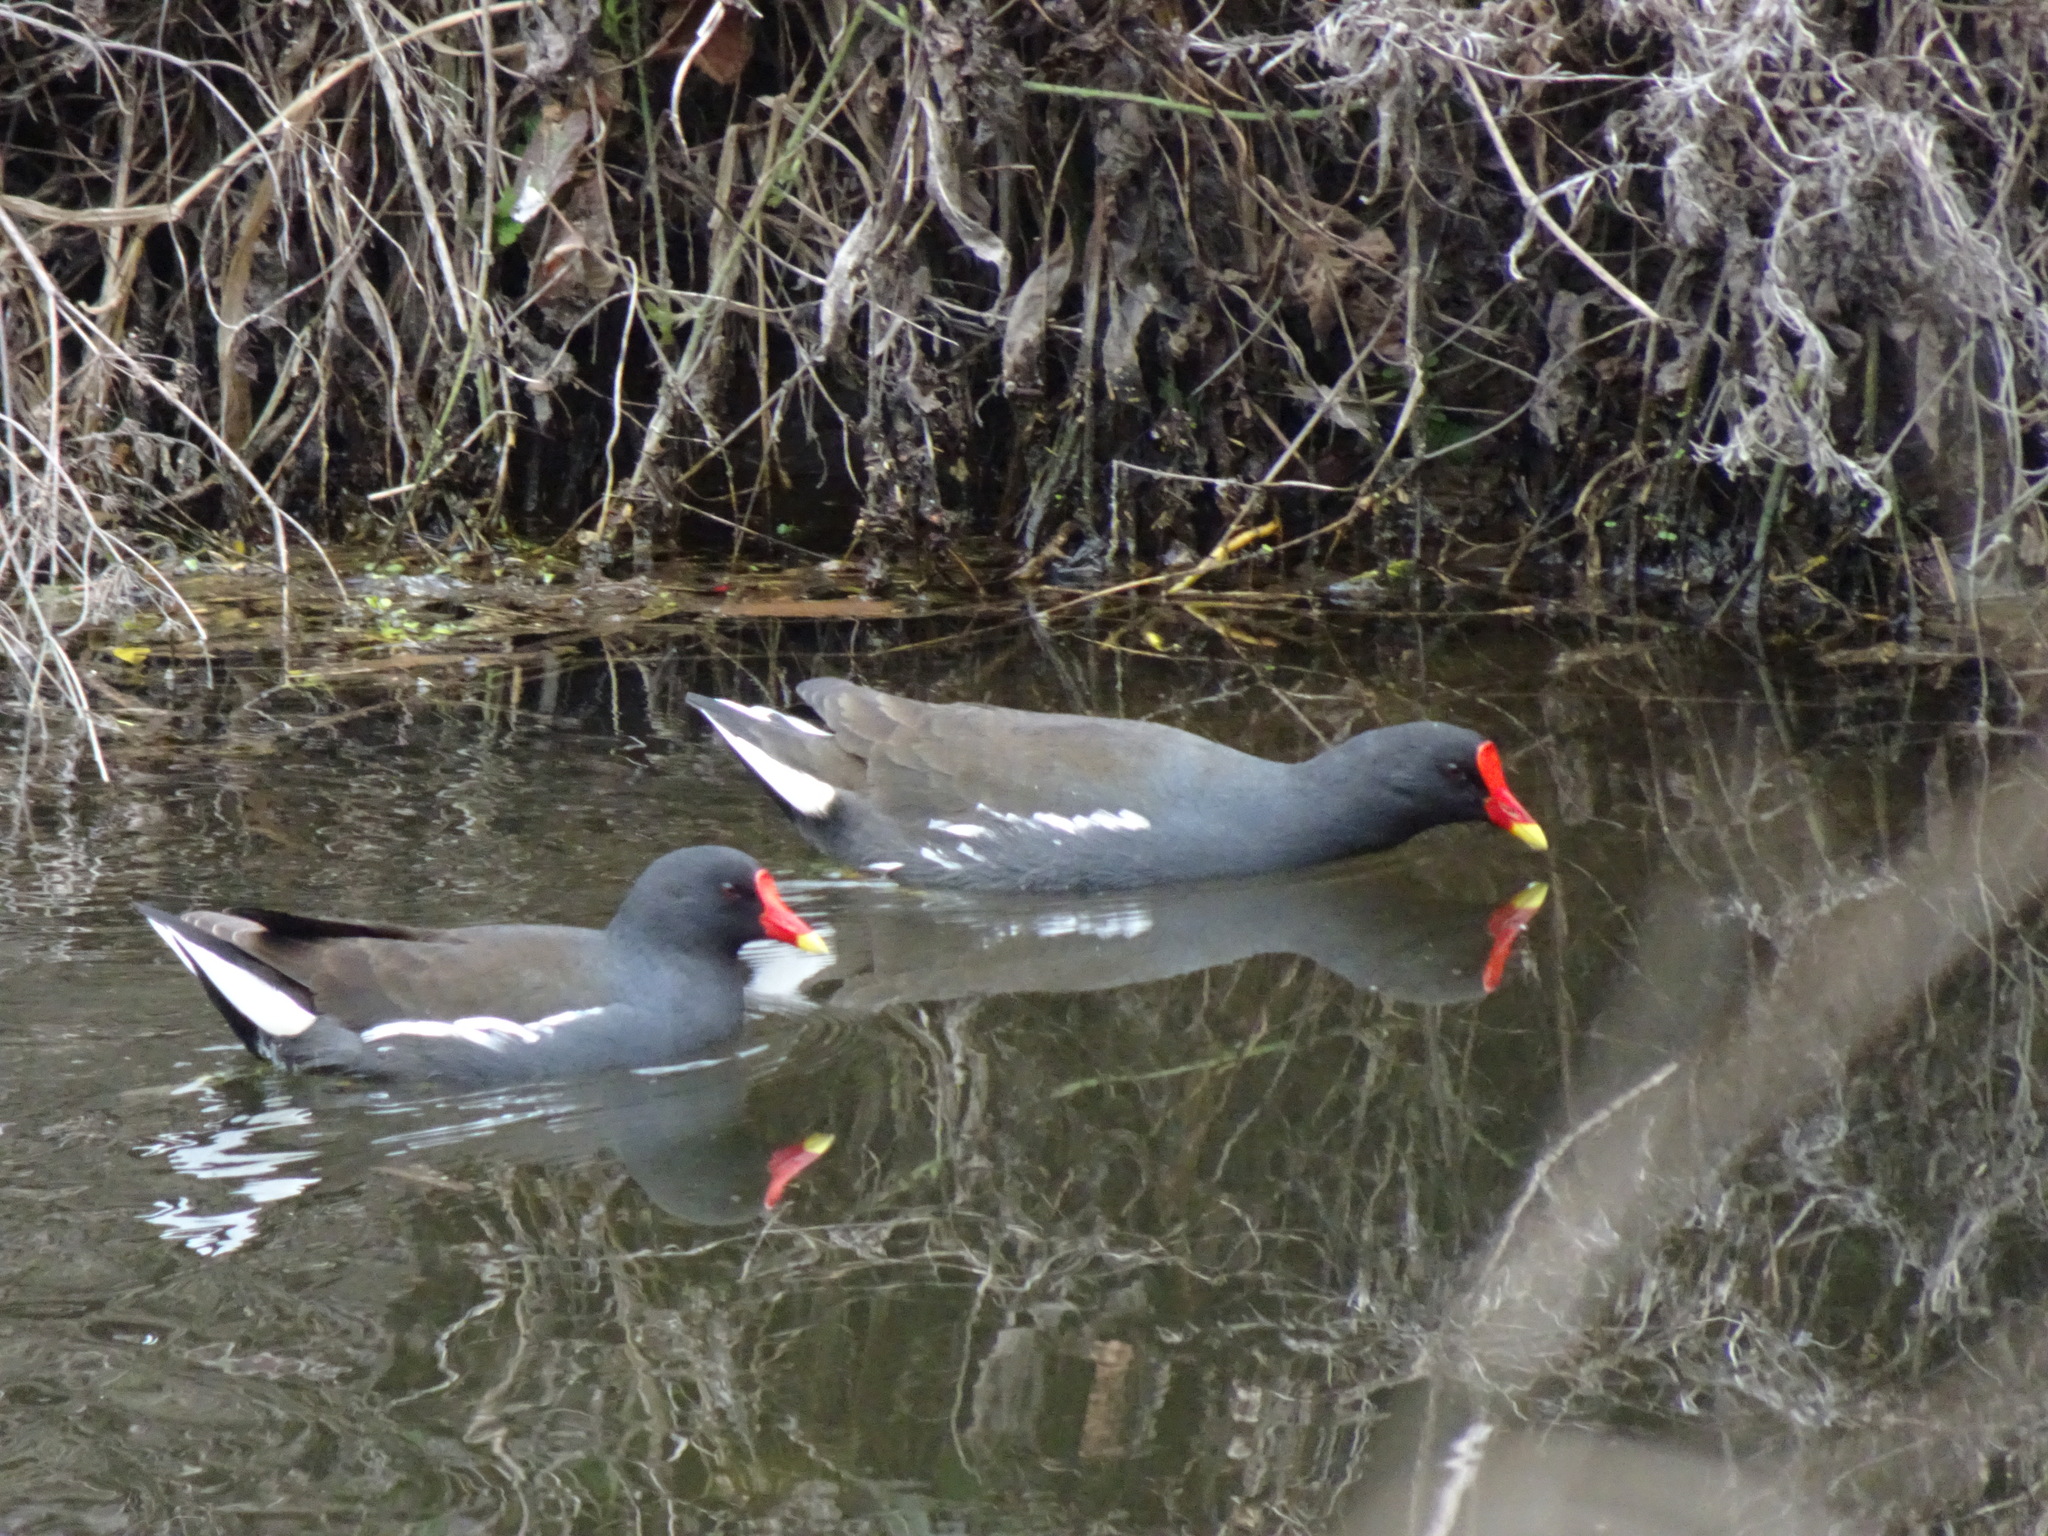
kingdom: Animalia
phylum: Chordata
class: Aves
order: Gruiformes
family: Rallidae
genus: Gallinula
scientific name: Gallinula chloropus
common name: Common moorhen
